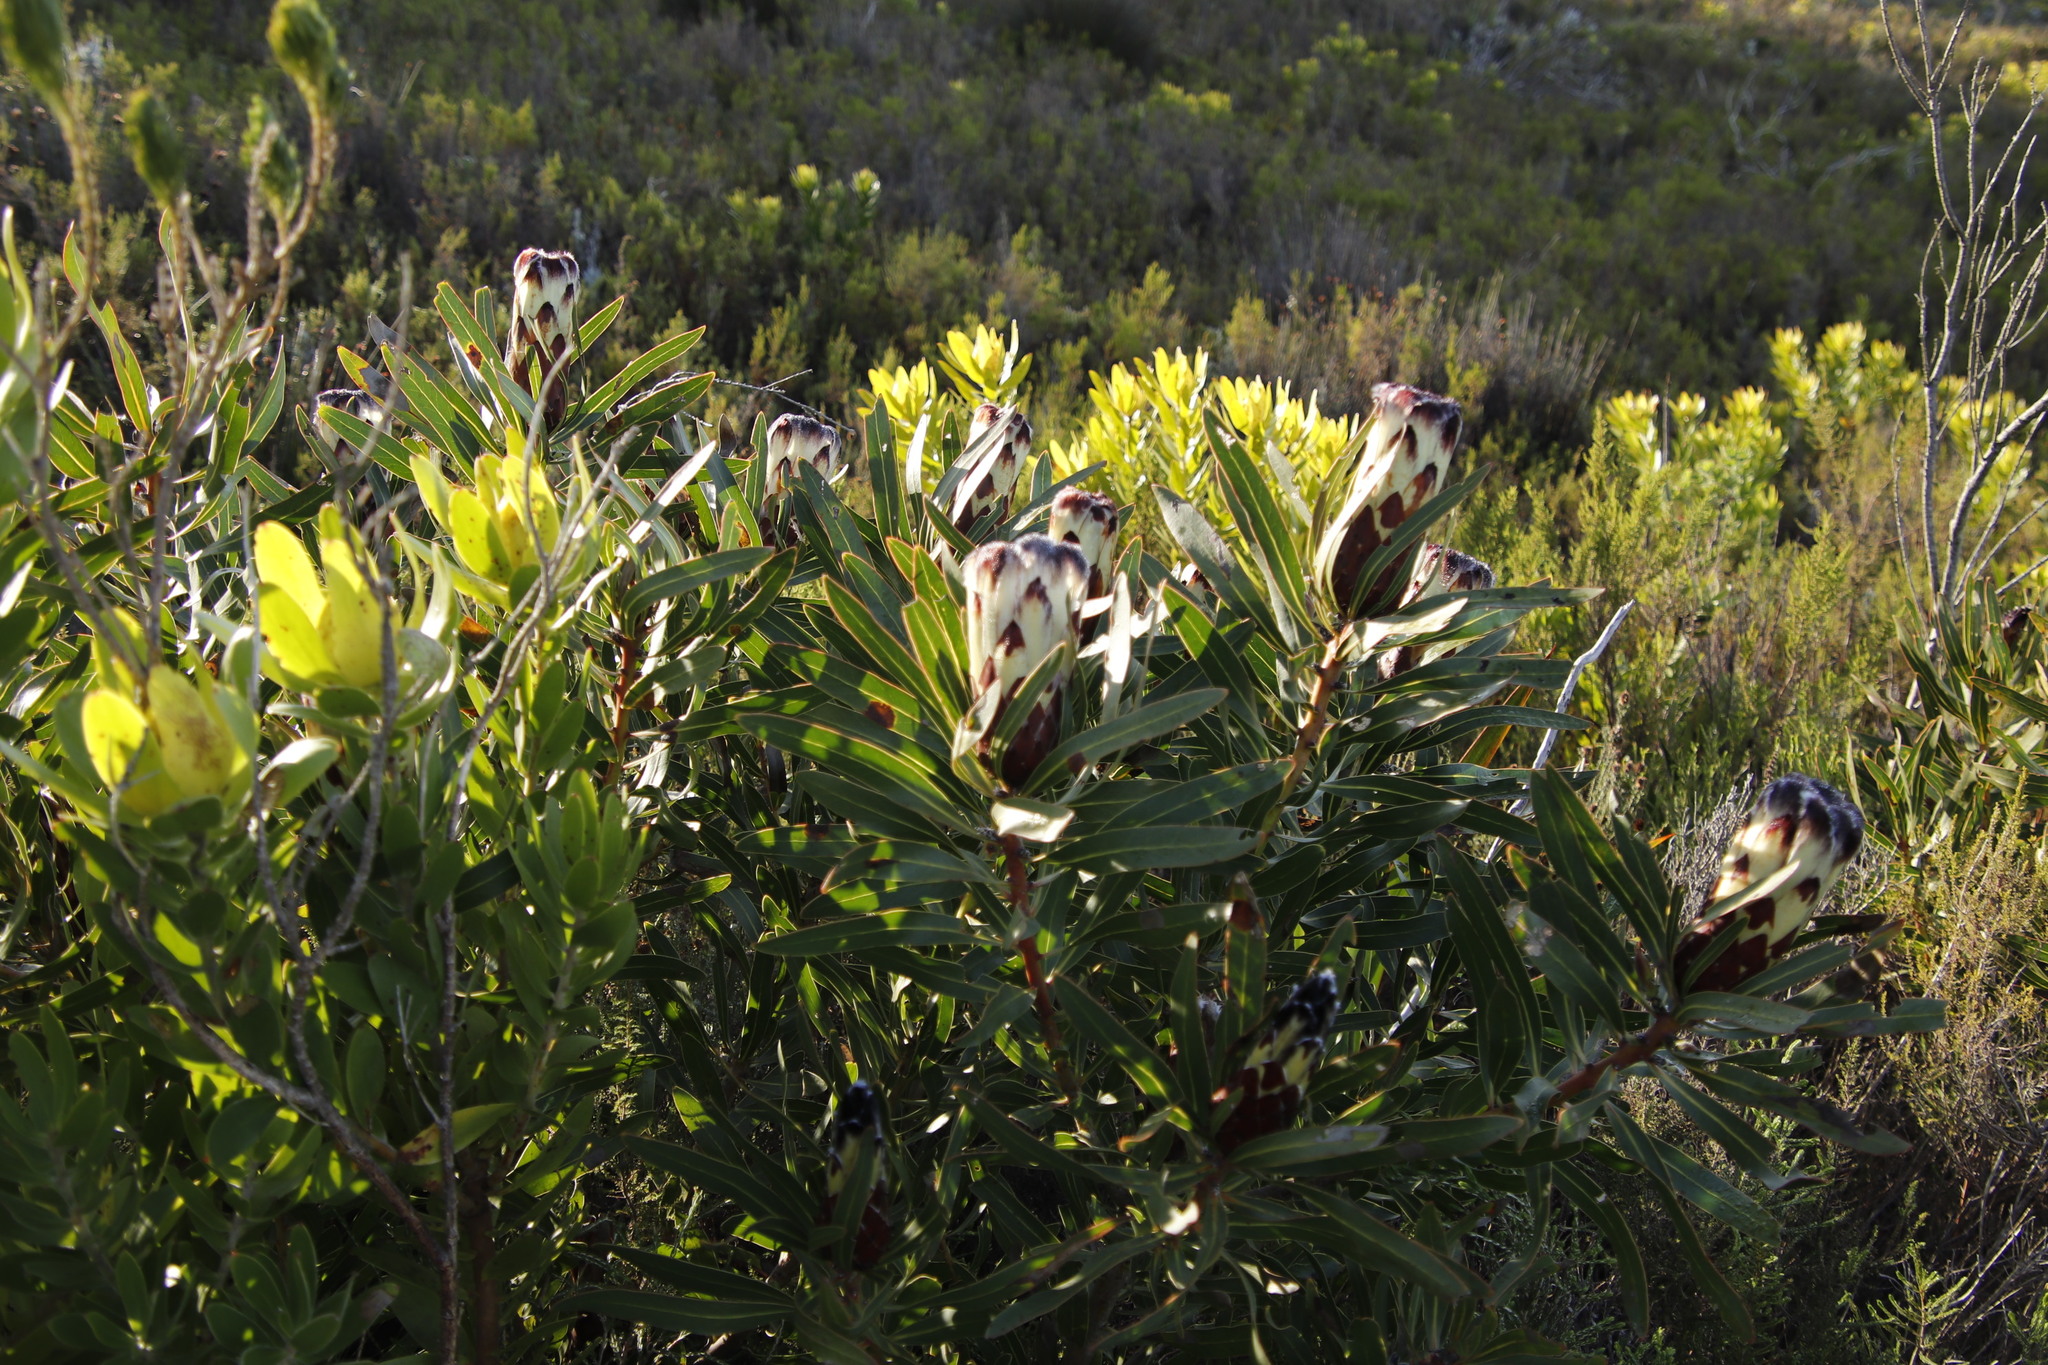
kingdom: Plantae
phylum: Tracheophyta
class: Magnoliopsida
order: Proteales
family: Proteaceae
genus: Protea
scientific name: Protea lepidocarpodendron
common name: Black-bearded protea
